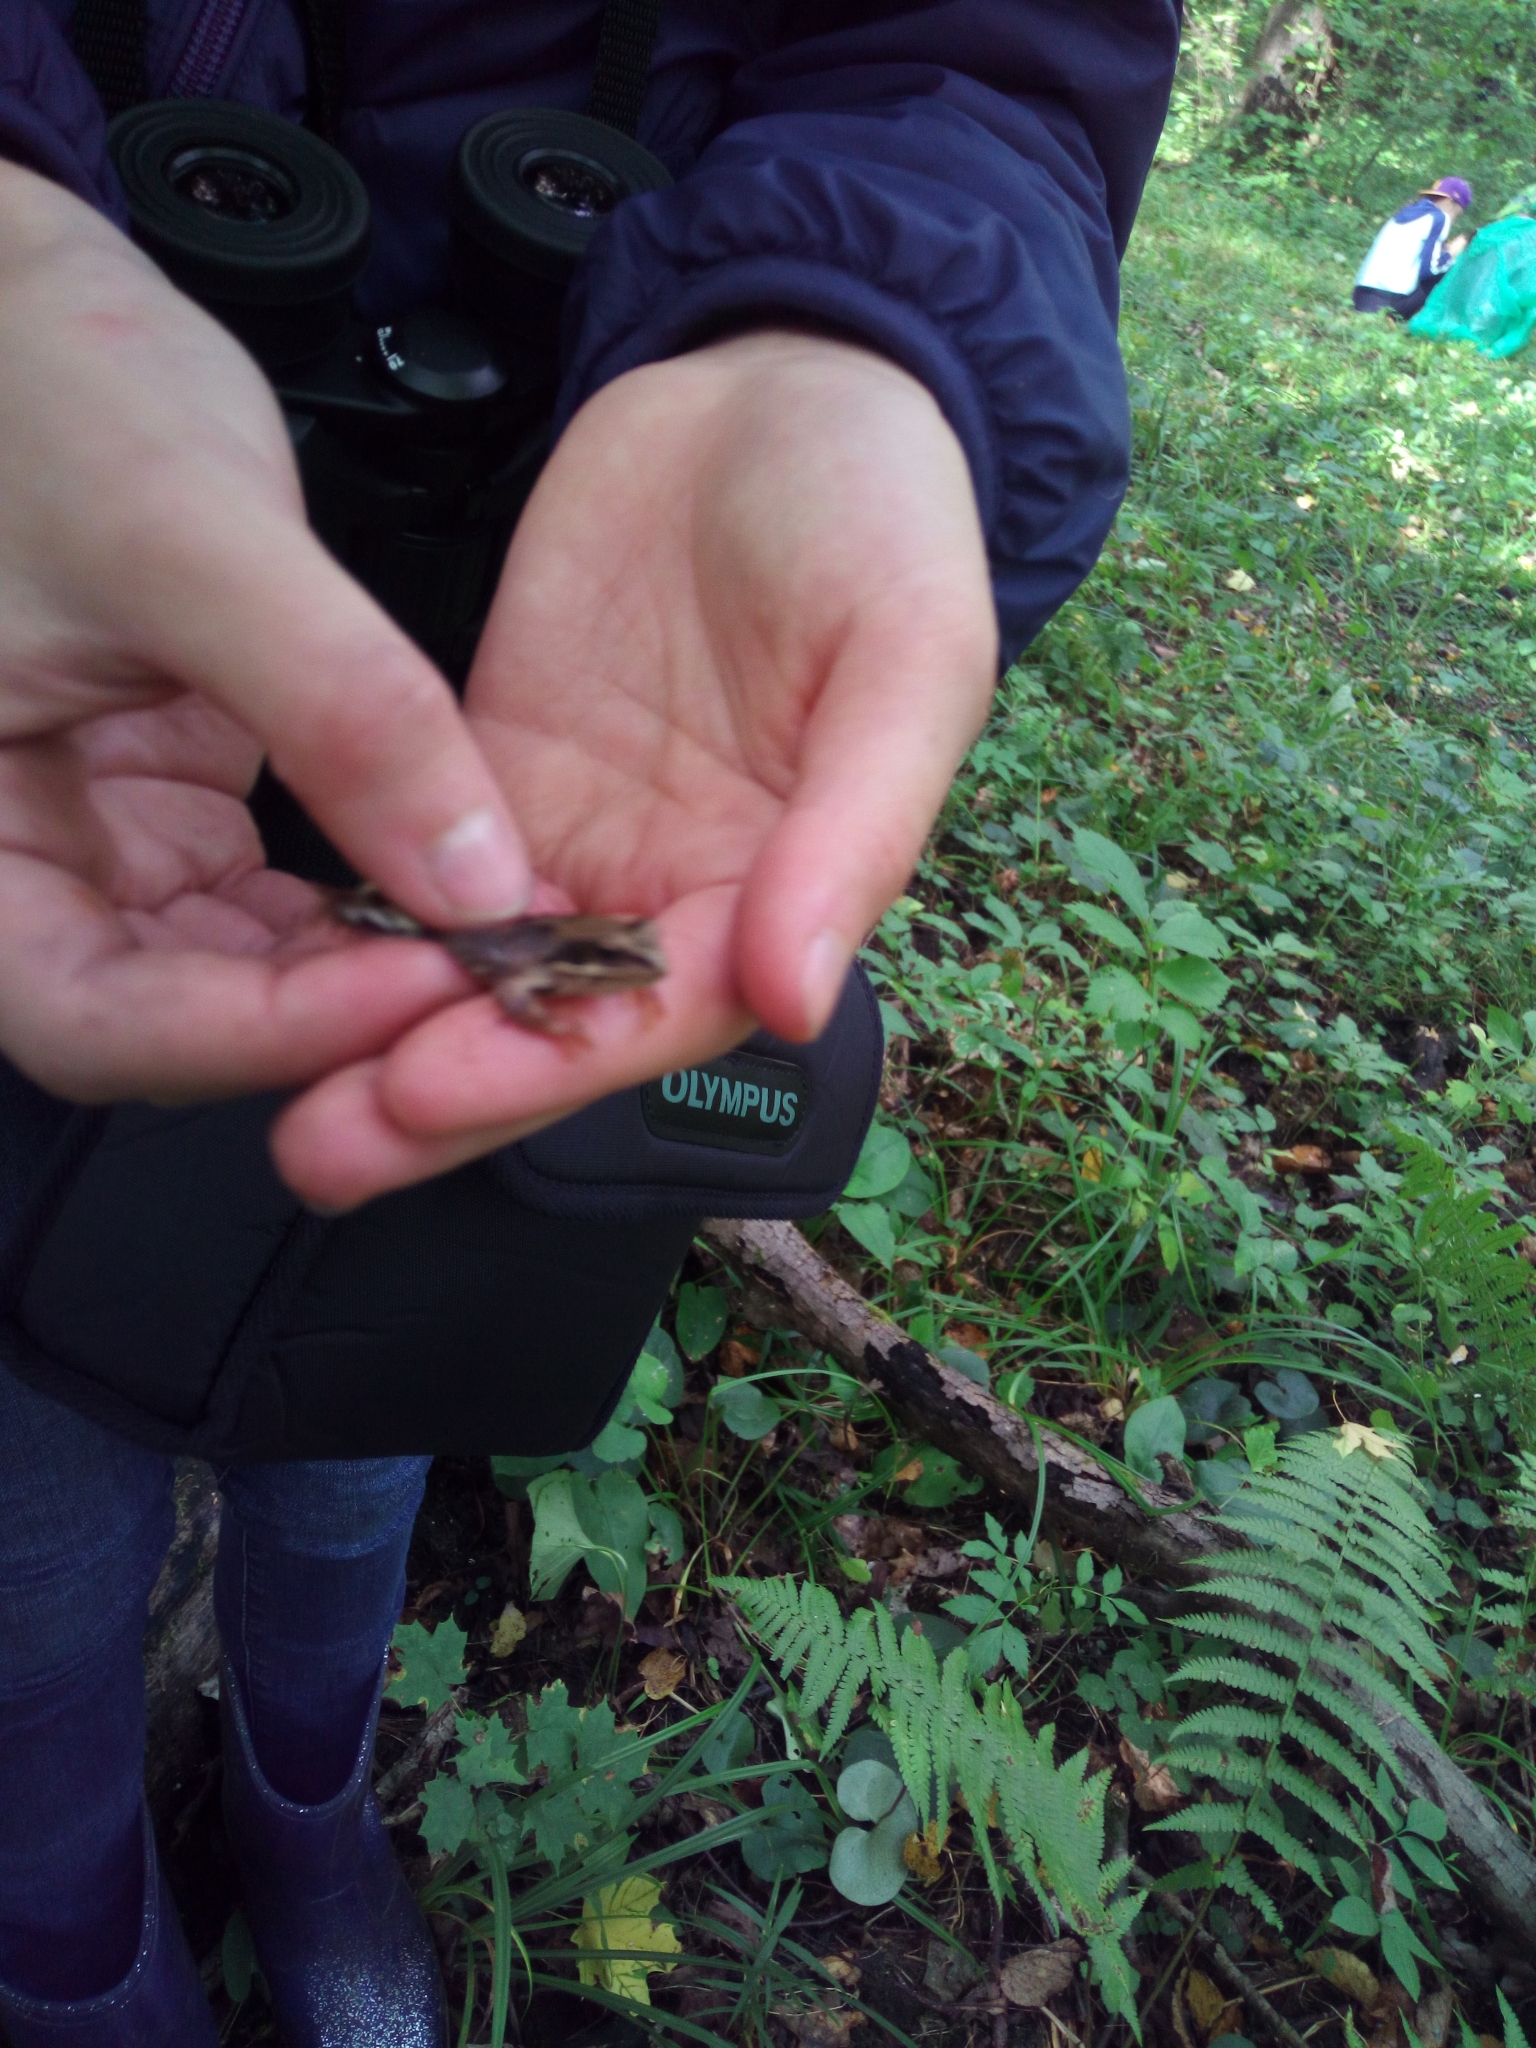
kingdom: Animalia
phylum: Chordata
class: Amphibia
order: Anura
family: Ranidae
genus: Rana
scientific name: Rana arvalis
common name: Moor frog
